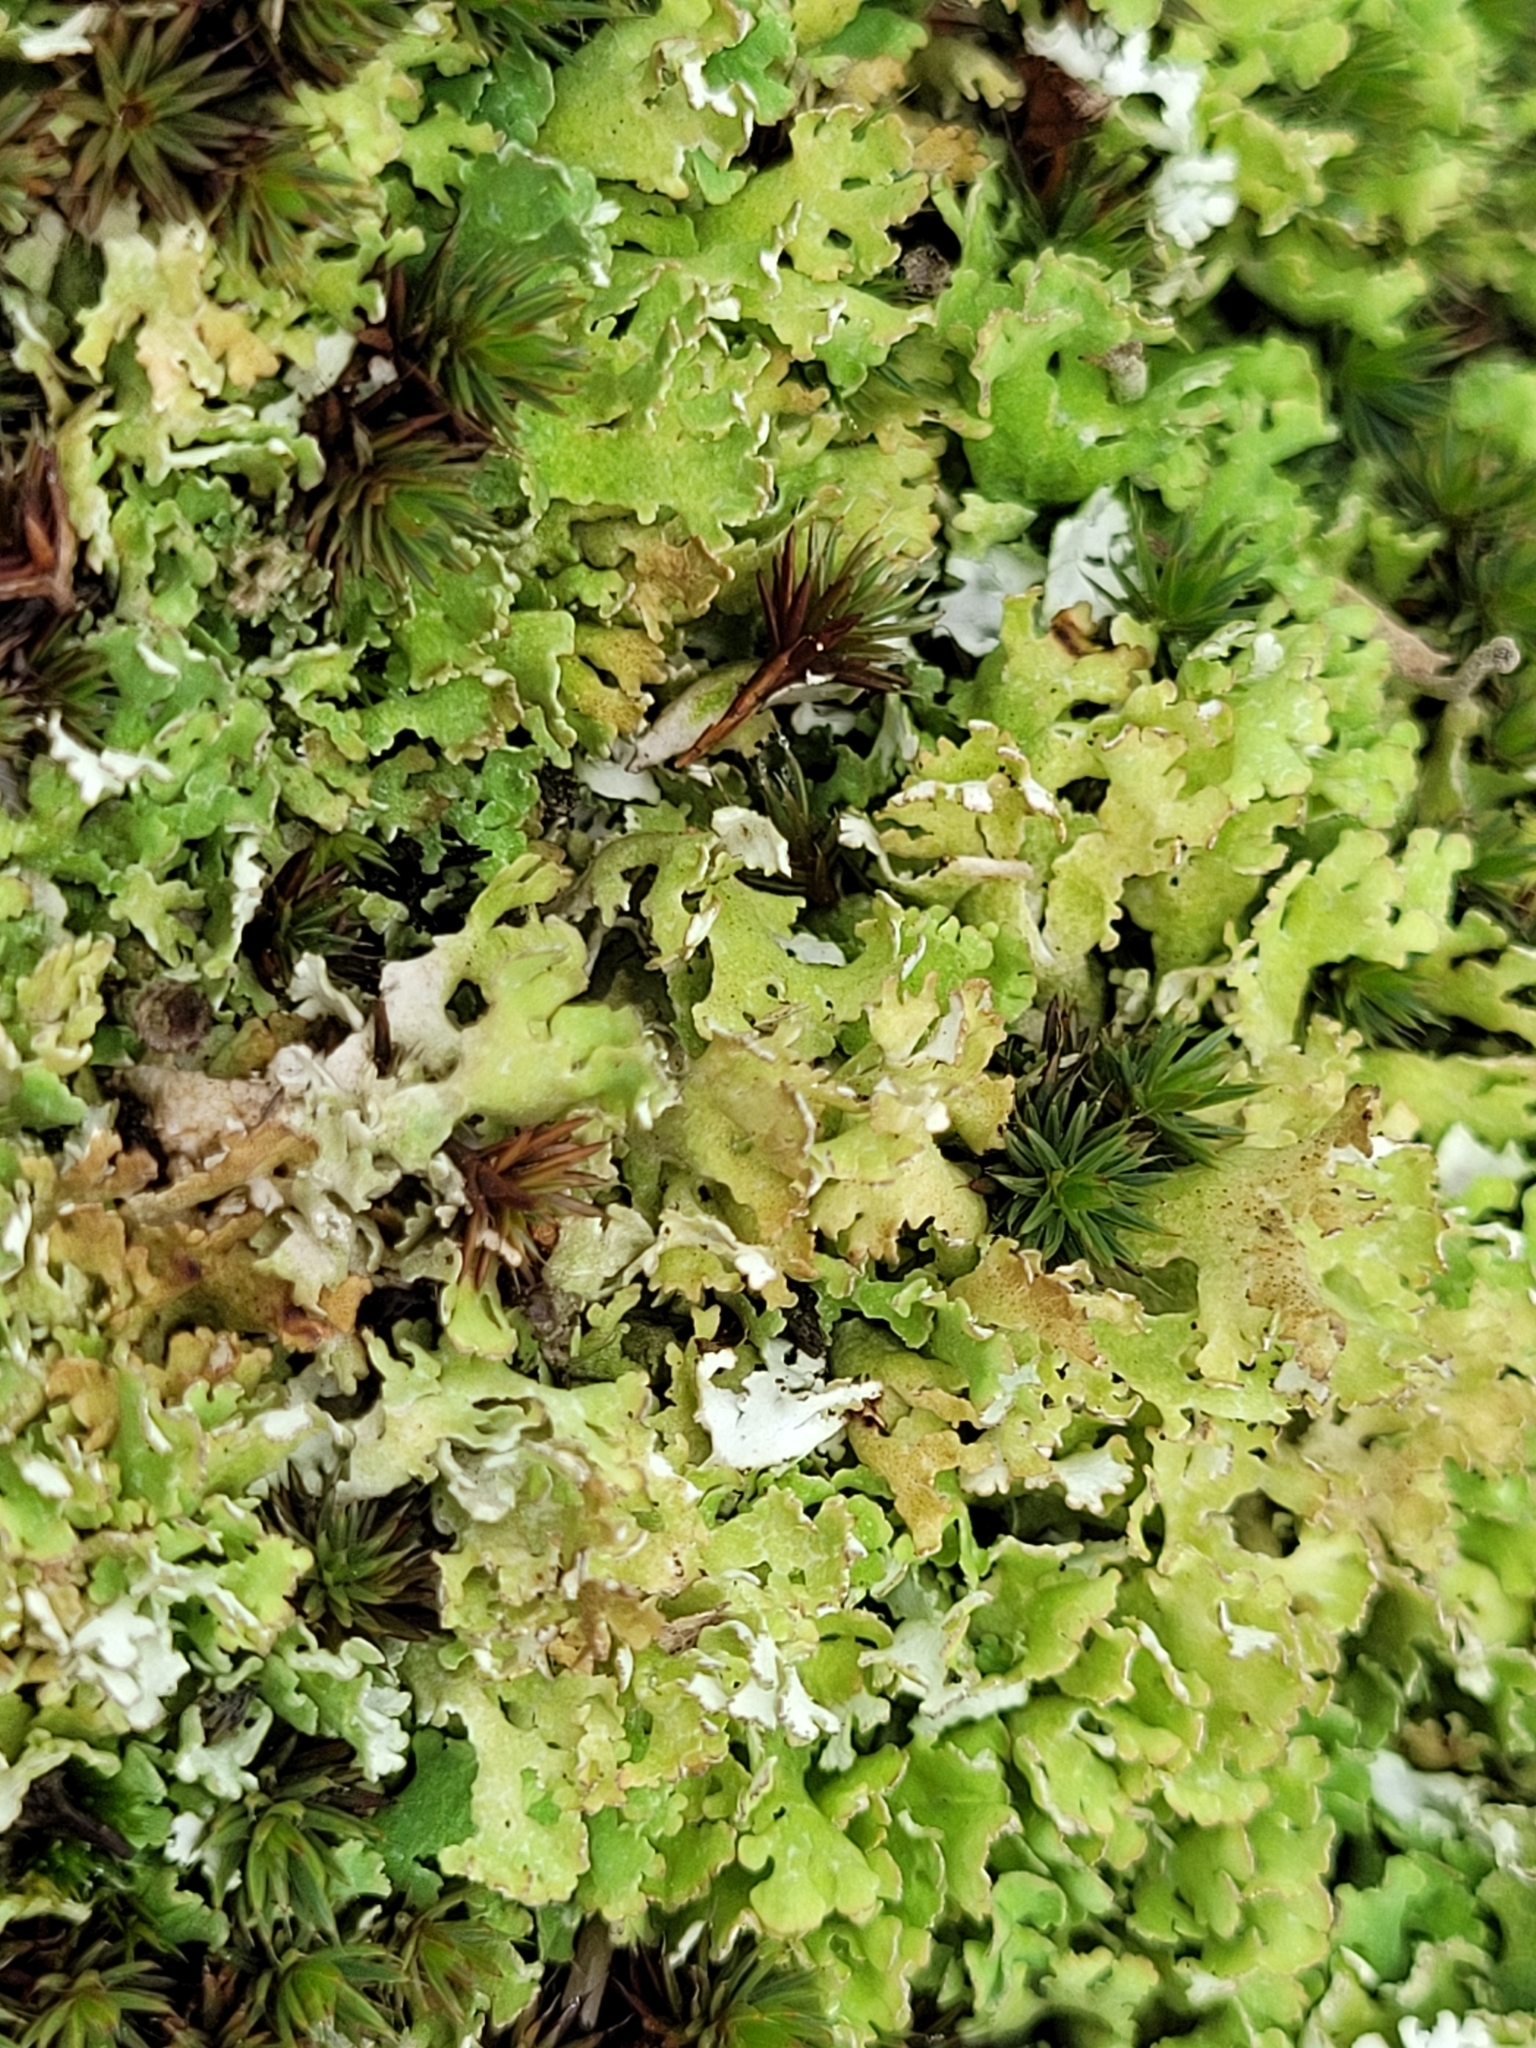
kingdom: Fungi
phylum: Ascomycota
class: Lecanoromycetes
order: Lecanorales
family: Cladoniaceae
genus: Cladonia
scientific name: Cladonia foliacea
